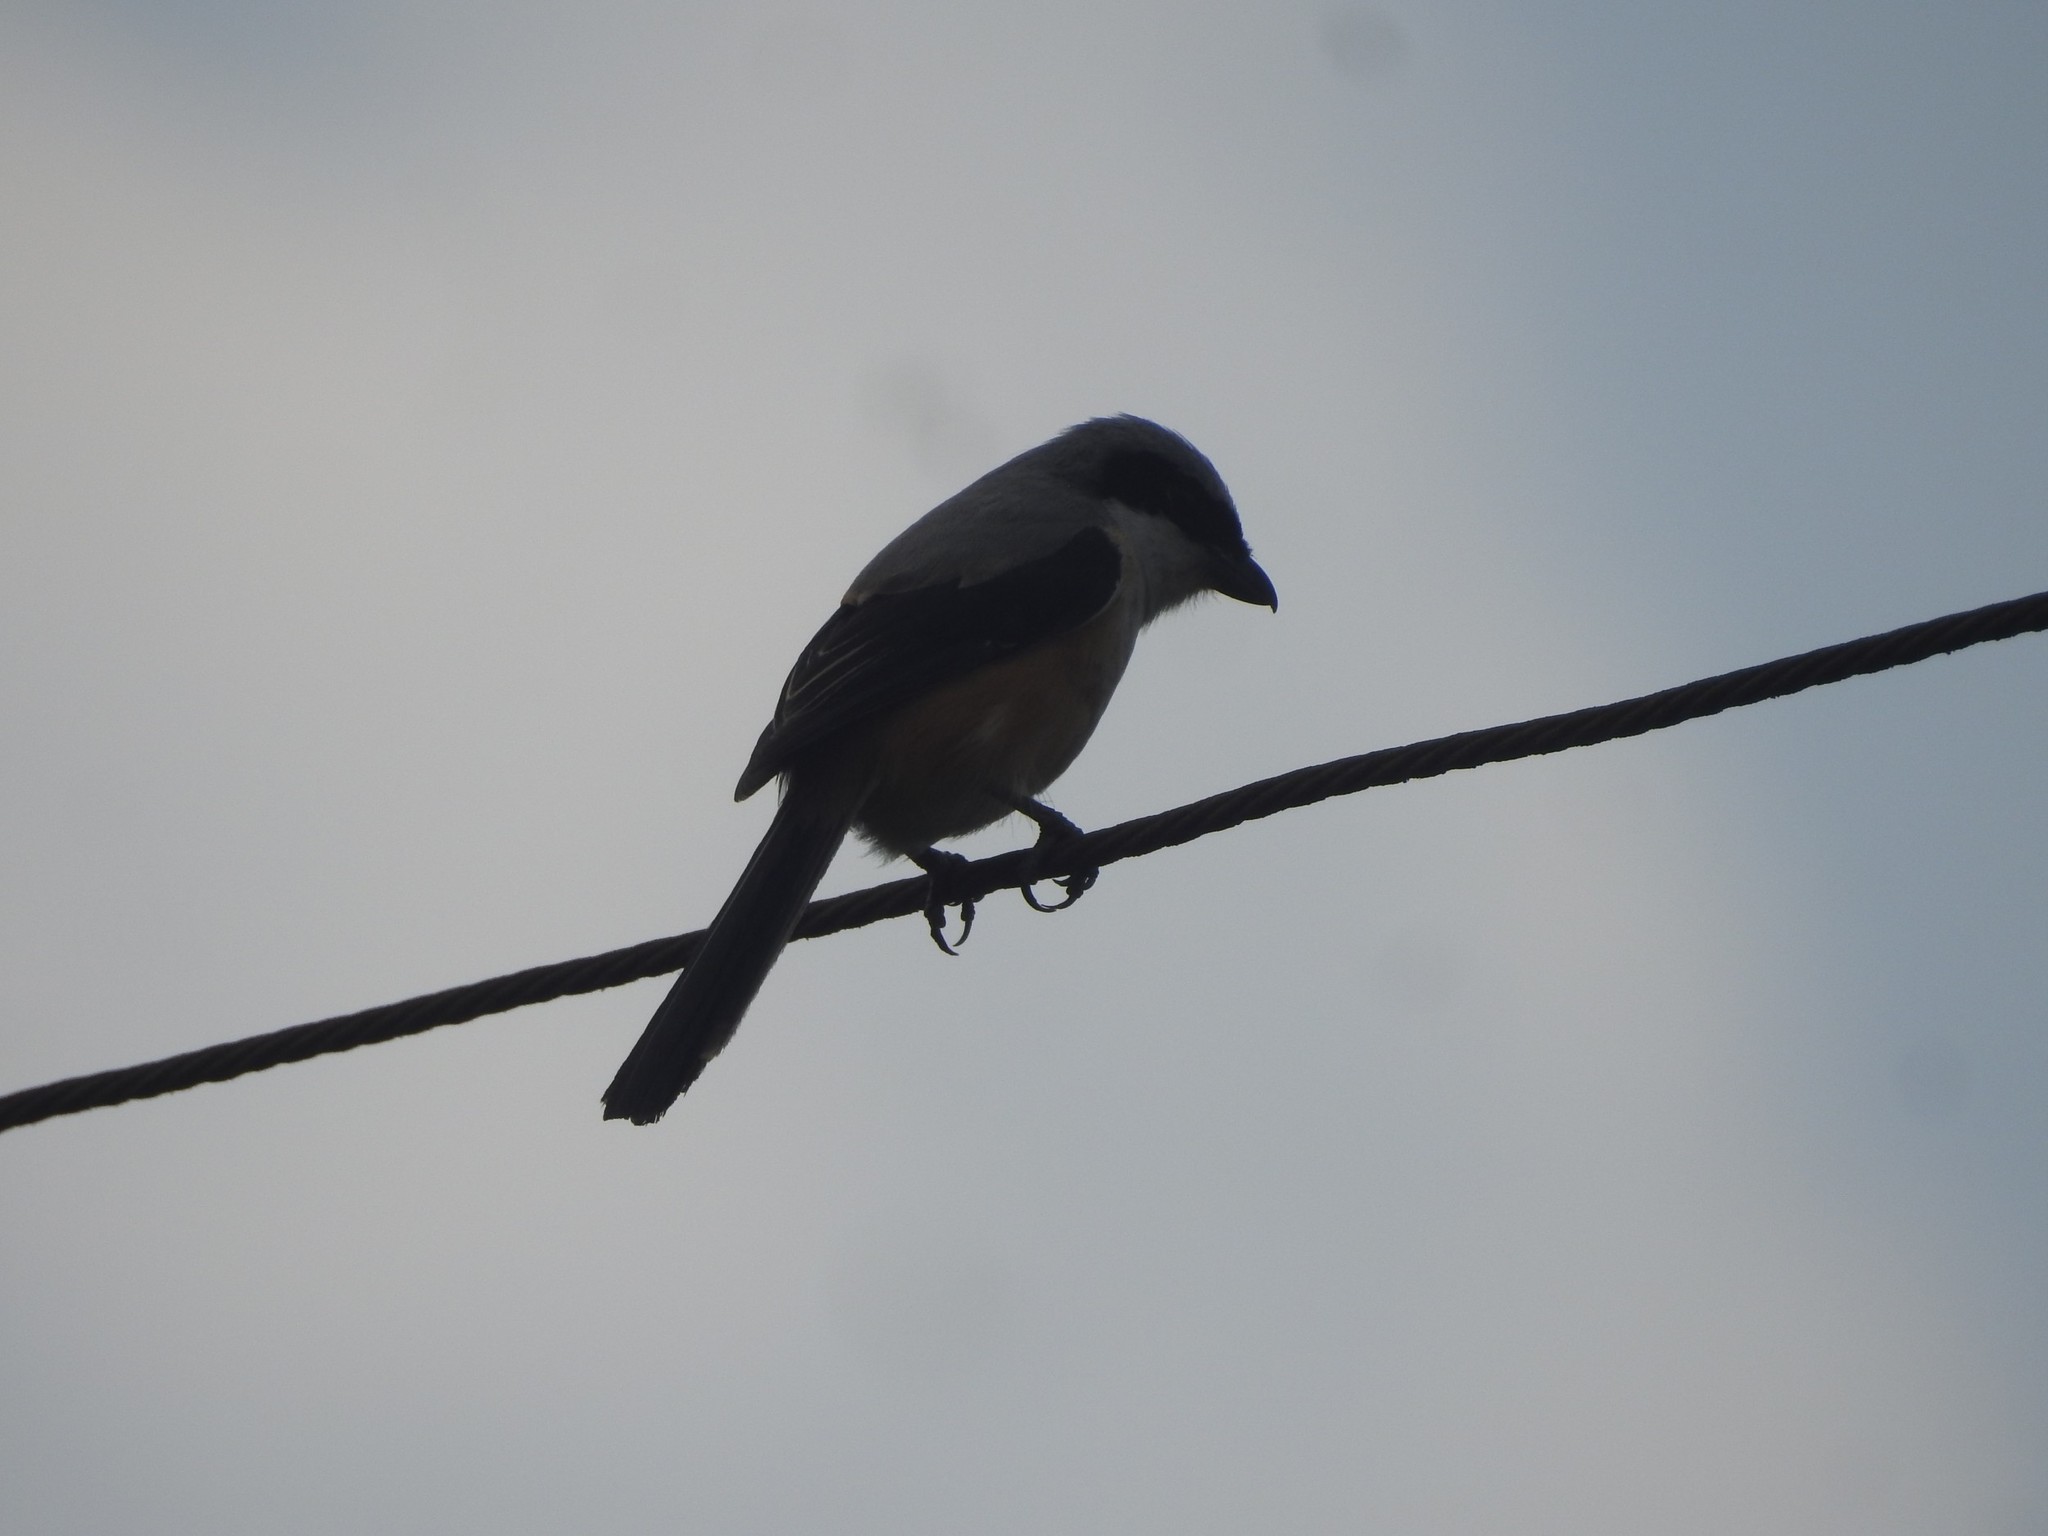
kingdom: Animalia
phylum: Chordata
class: Aves
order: Passeriformes
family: Laniidae
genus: Lanius
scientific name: Lanius schach
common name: Long-tailed shrike
